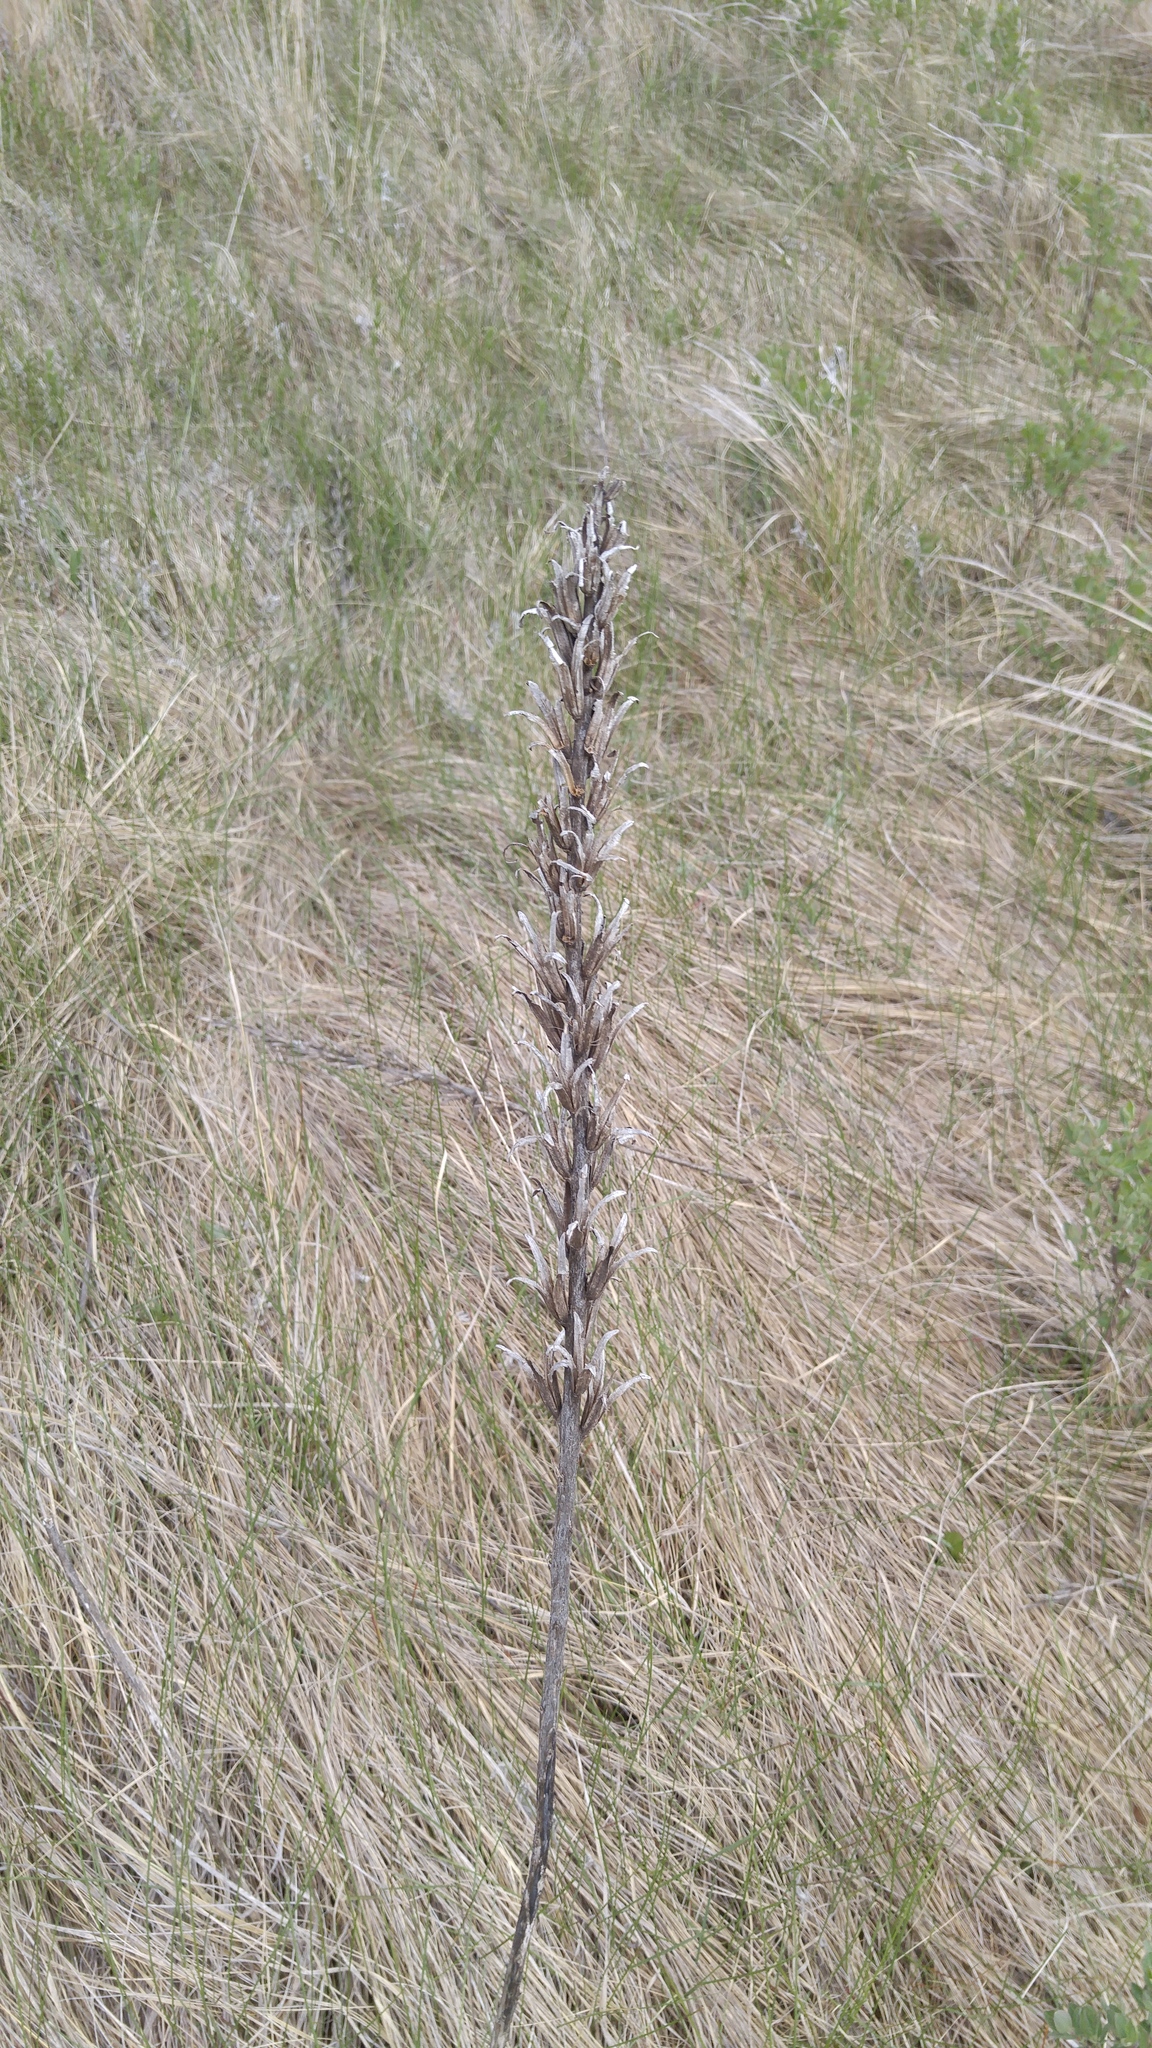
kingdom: Plantae
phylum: Tracheophyta
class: Magnoliopsida
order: Myrtales
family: Onagraceae
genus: Oenothera
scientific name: Oenothera biennis
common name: Common evening-primrose
